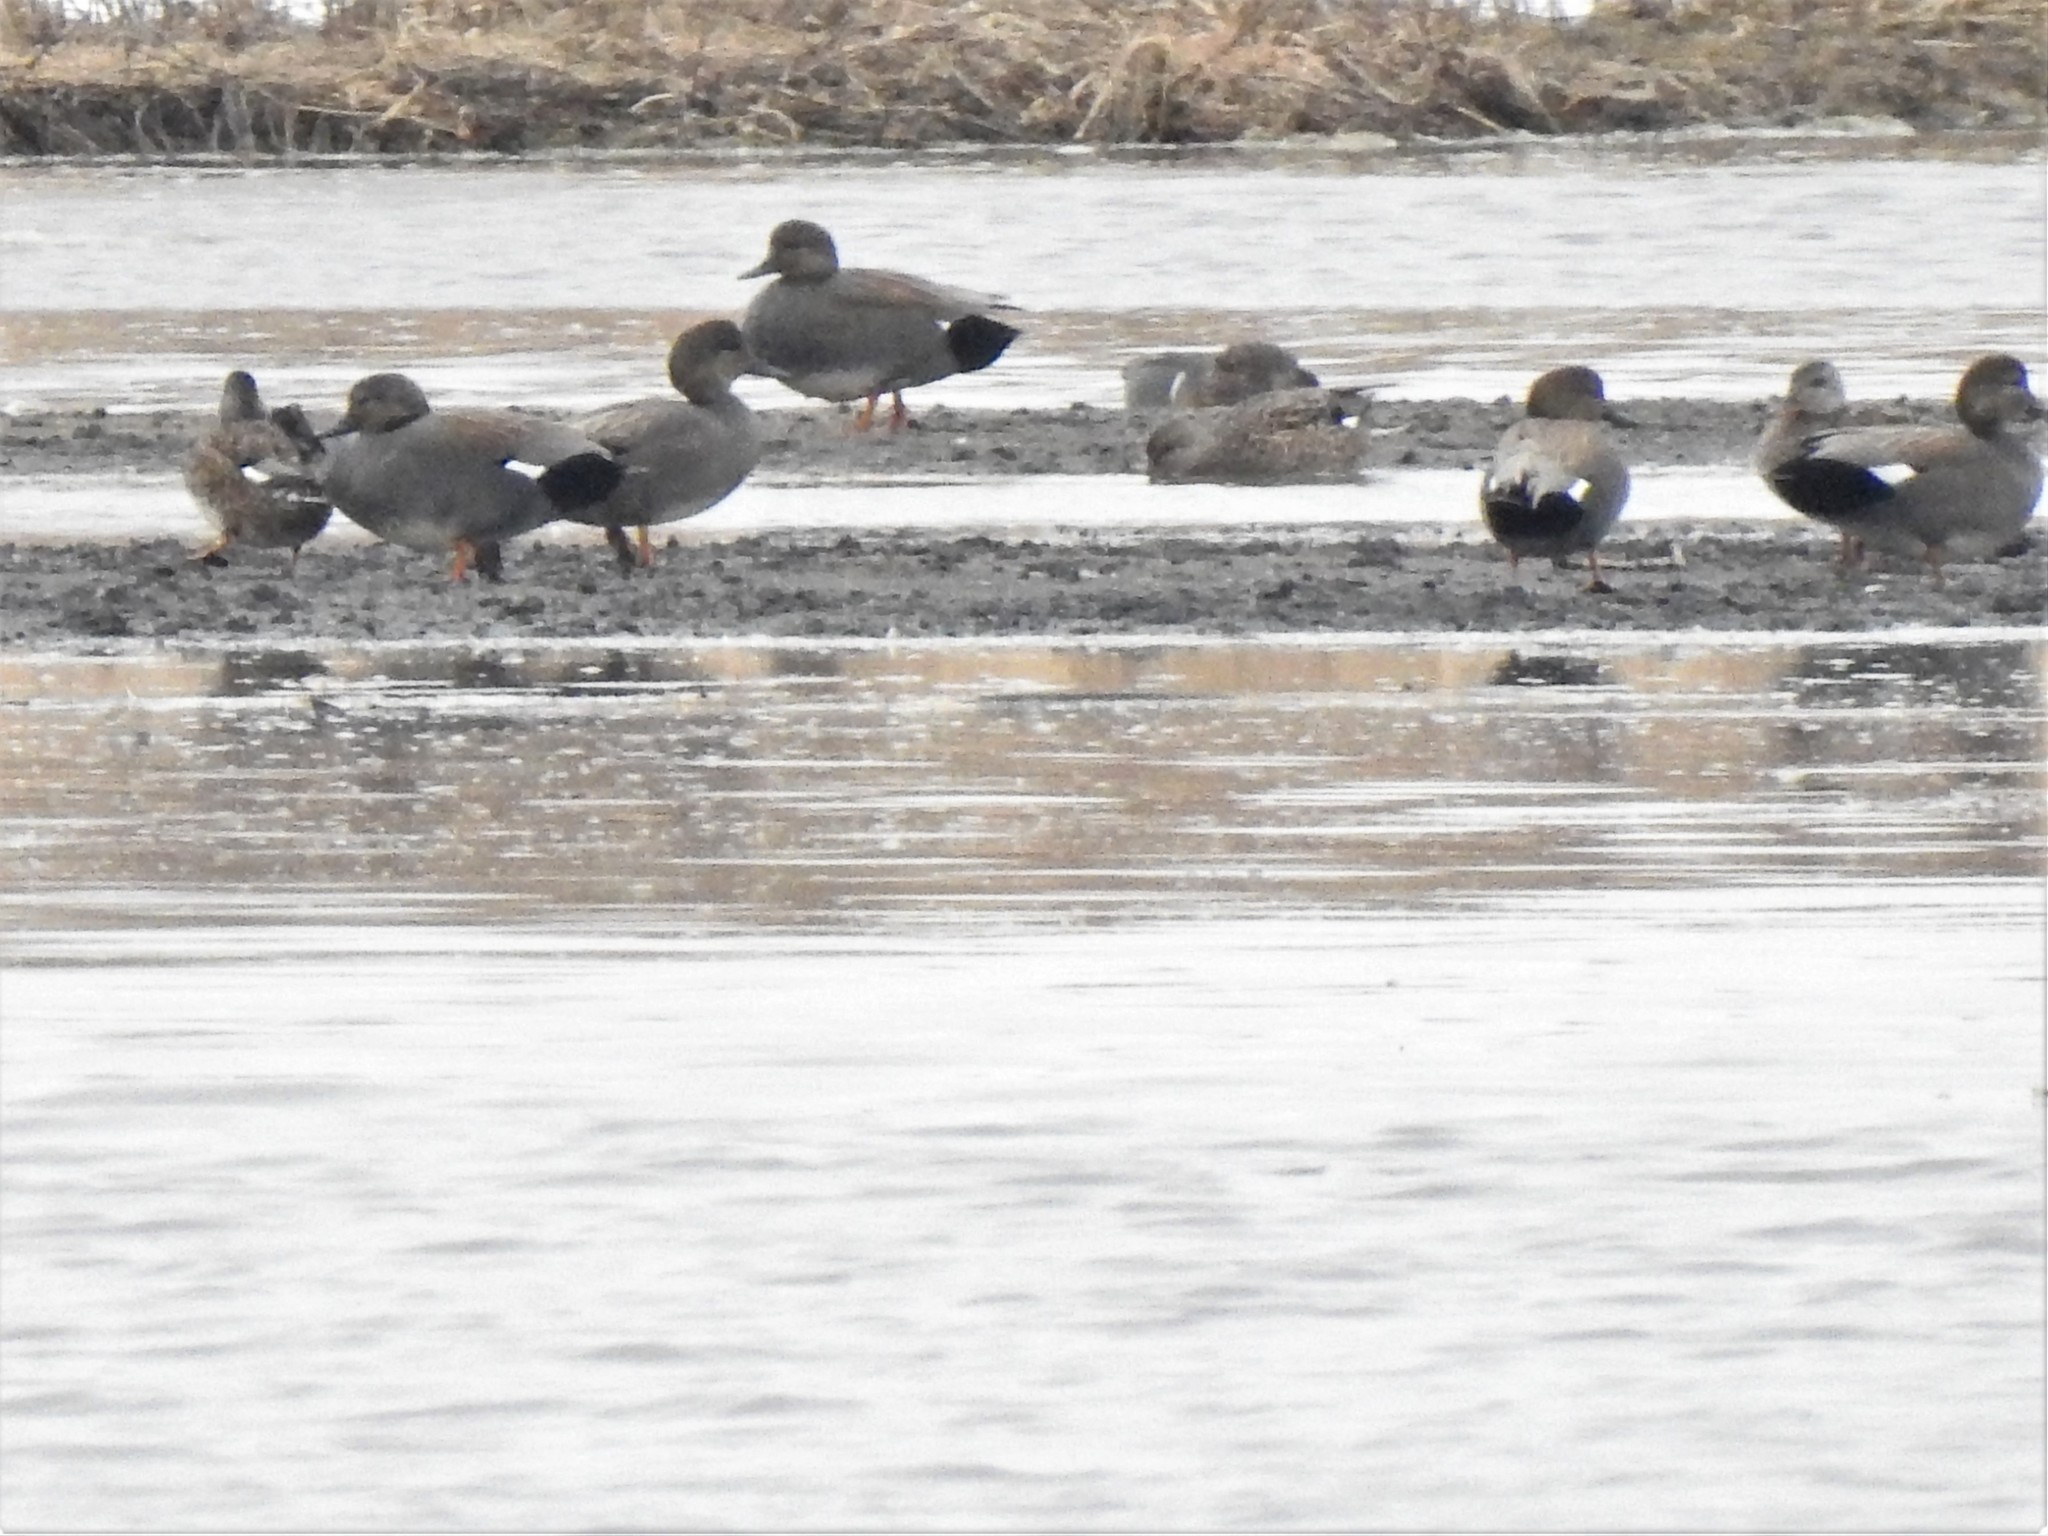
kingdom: Animalia
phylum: Chordata
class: Aves
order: Anseriformes
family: Anatidae
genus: Mareca
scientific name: Mareca strepera
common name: Gadwall
